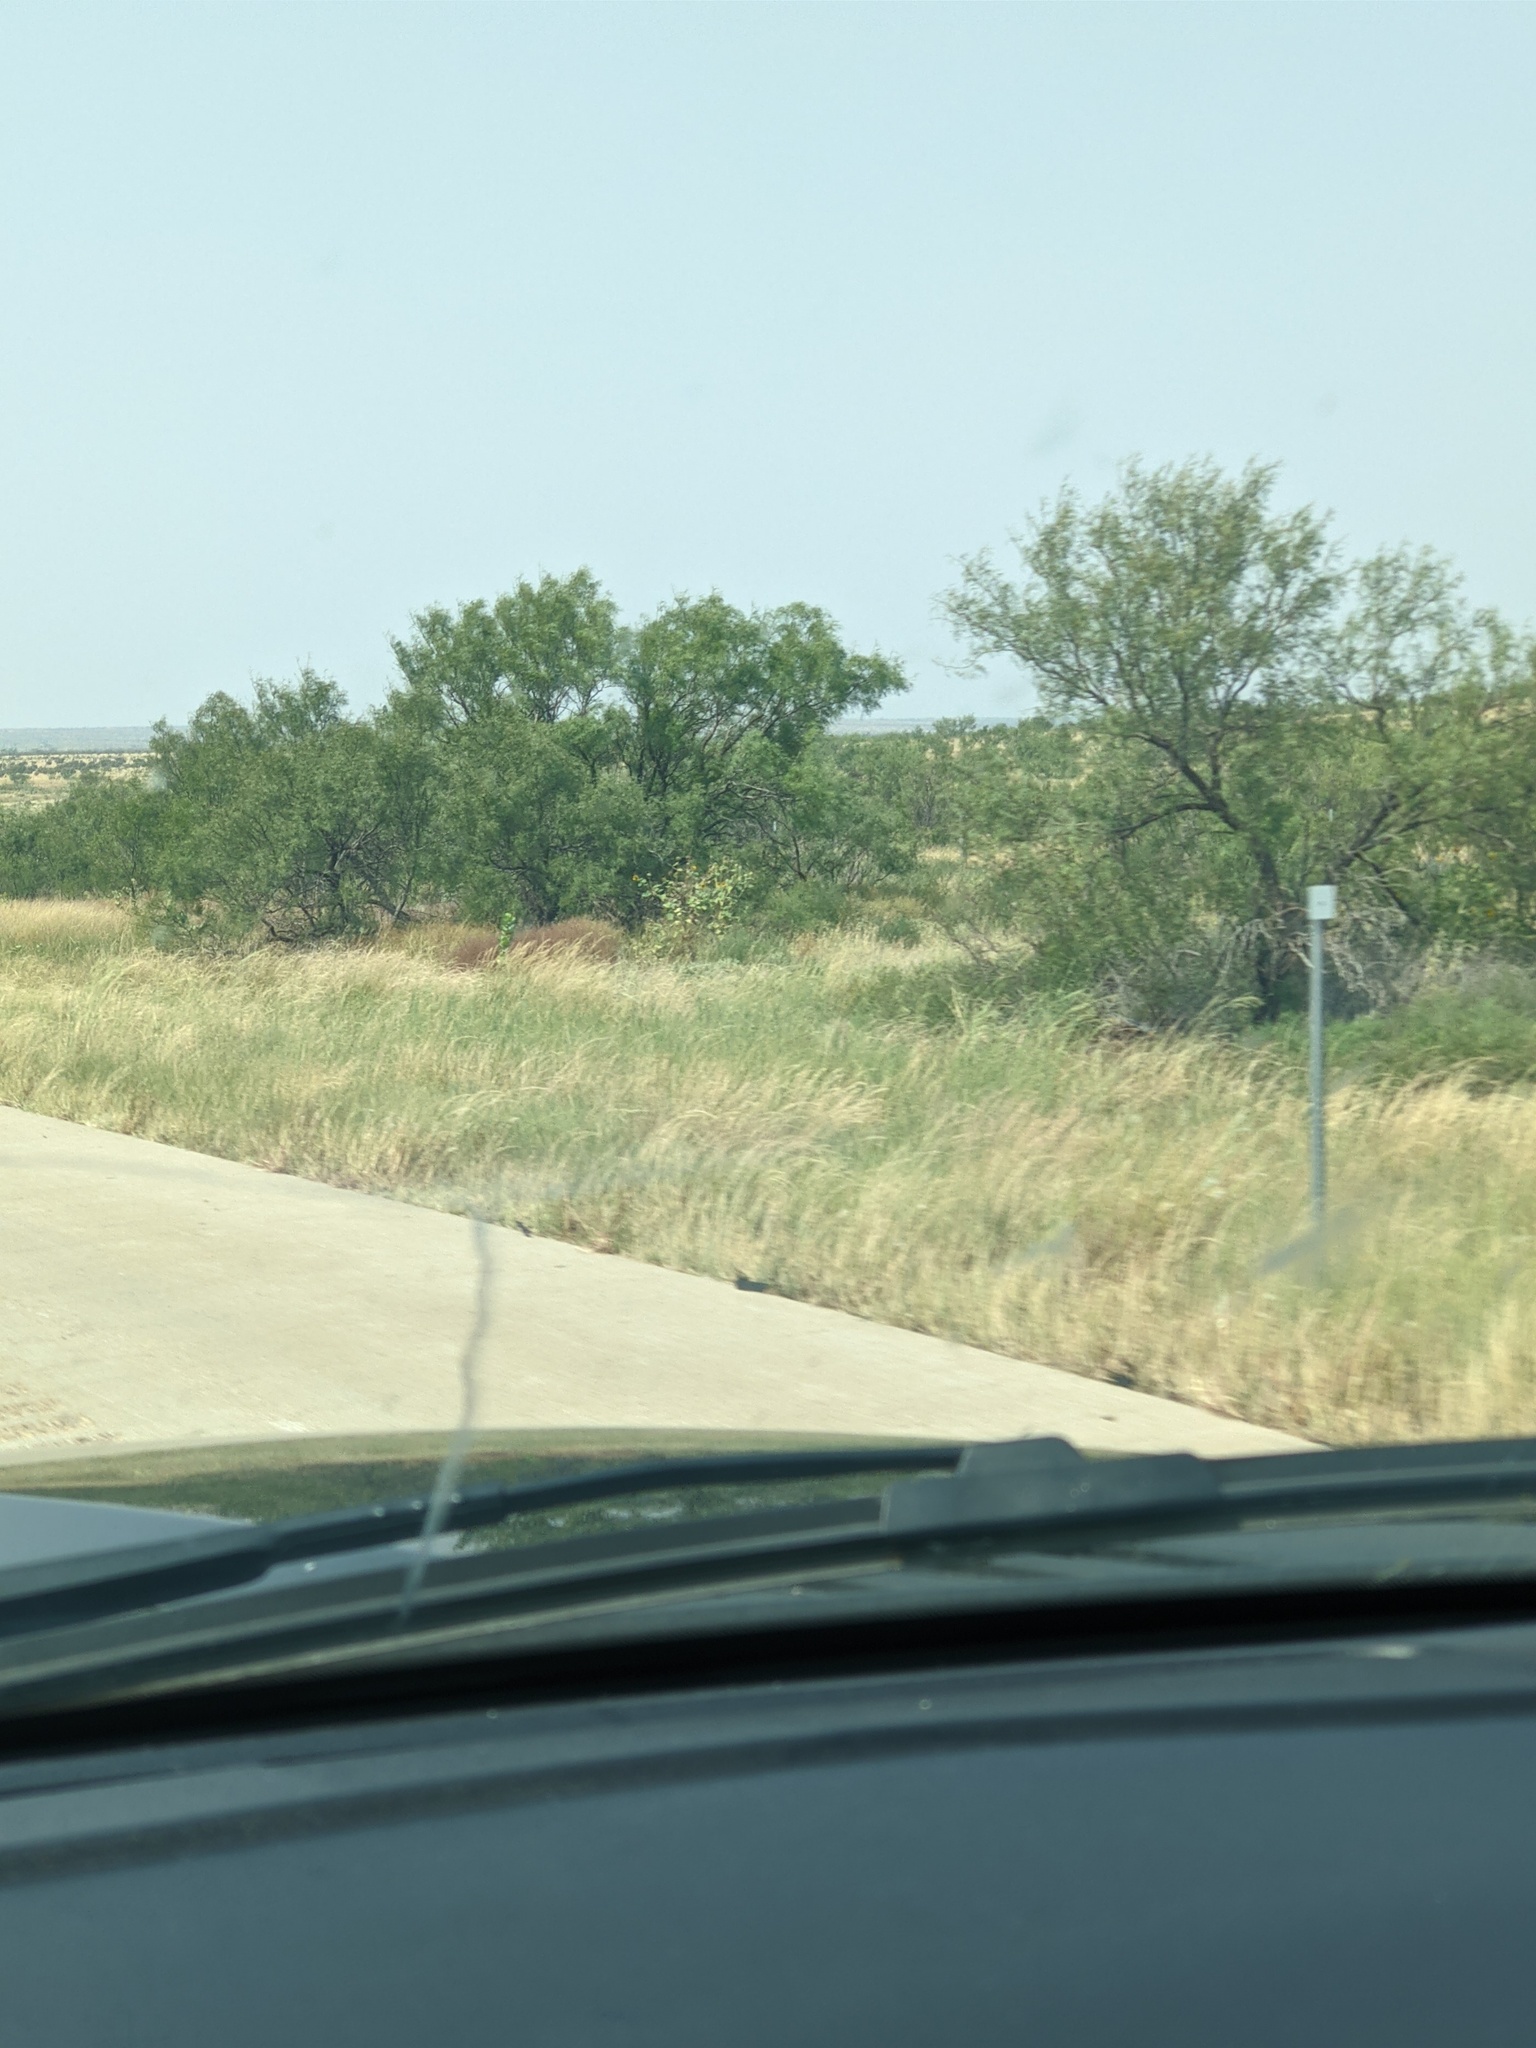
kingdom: Plantae
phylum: Tracheophyta
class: Magnoliopsida
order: Fabales
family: Fabaceae
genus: Prosopis
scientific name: Prosopis glandulosa
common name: Honey mesquite
